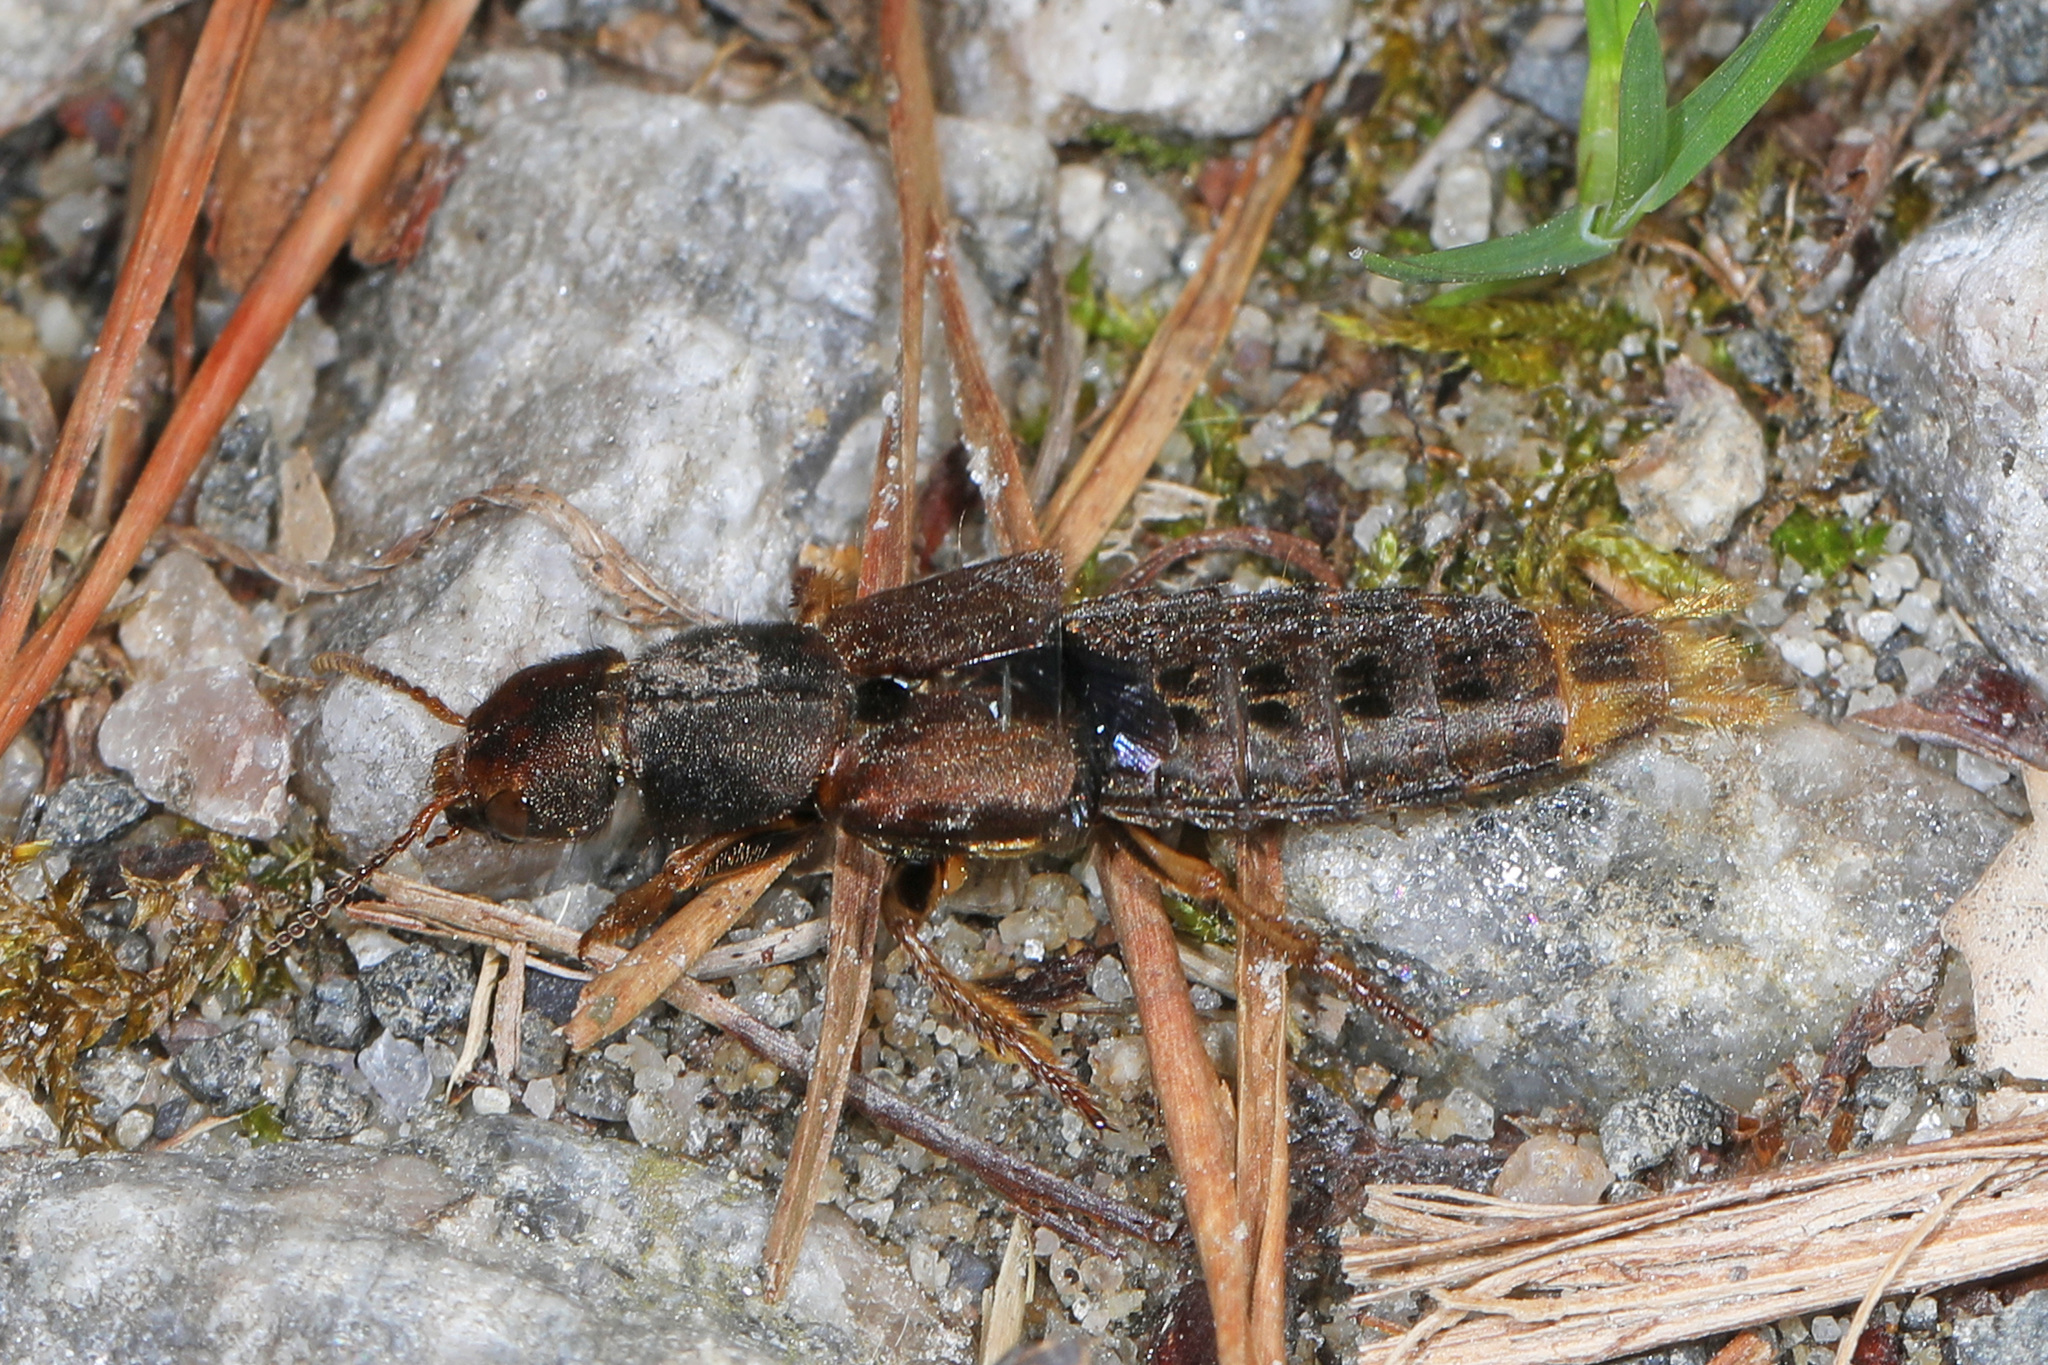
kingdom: Animalia
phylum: Arthropoda
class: Insecta
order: Coleoptera
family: Staphylinidae
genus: Platydracus
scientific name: Platydracus maculosus
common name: Brown rove beetle
